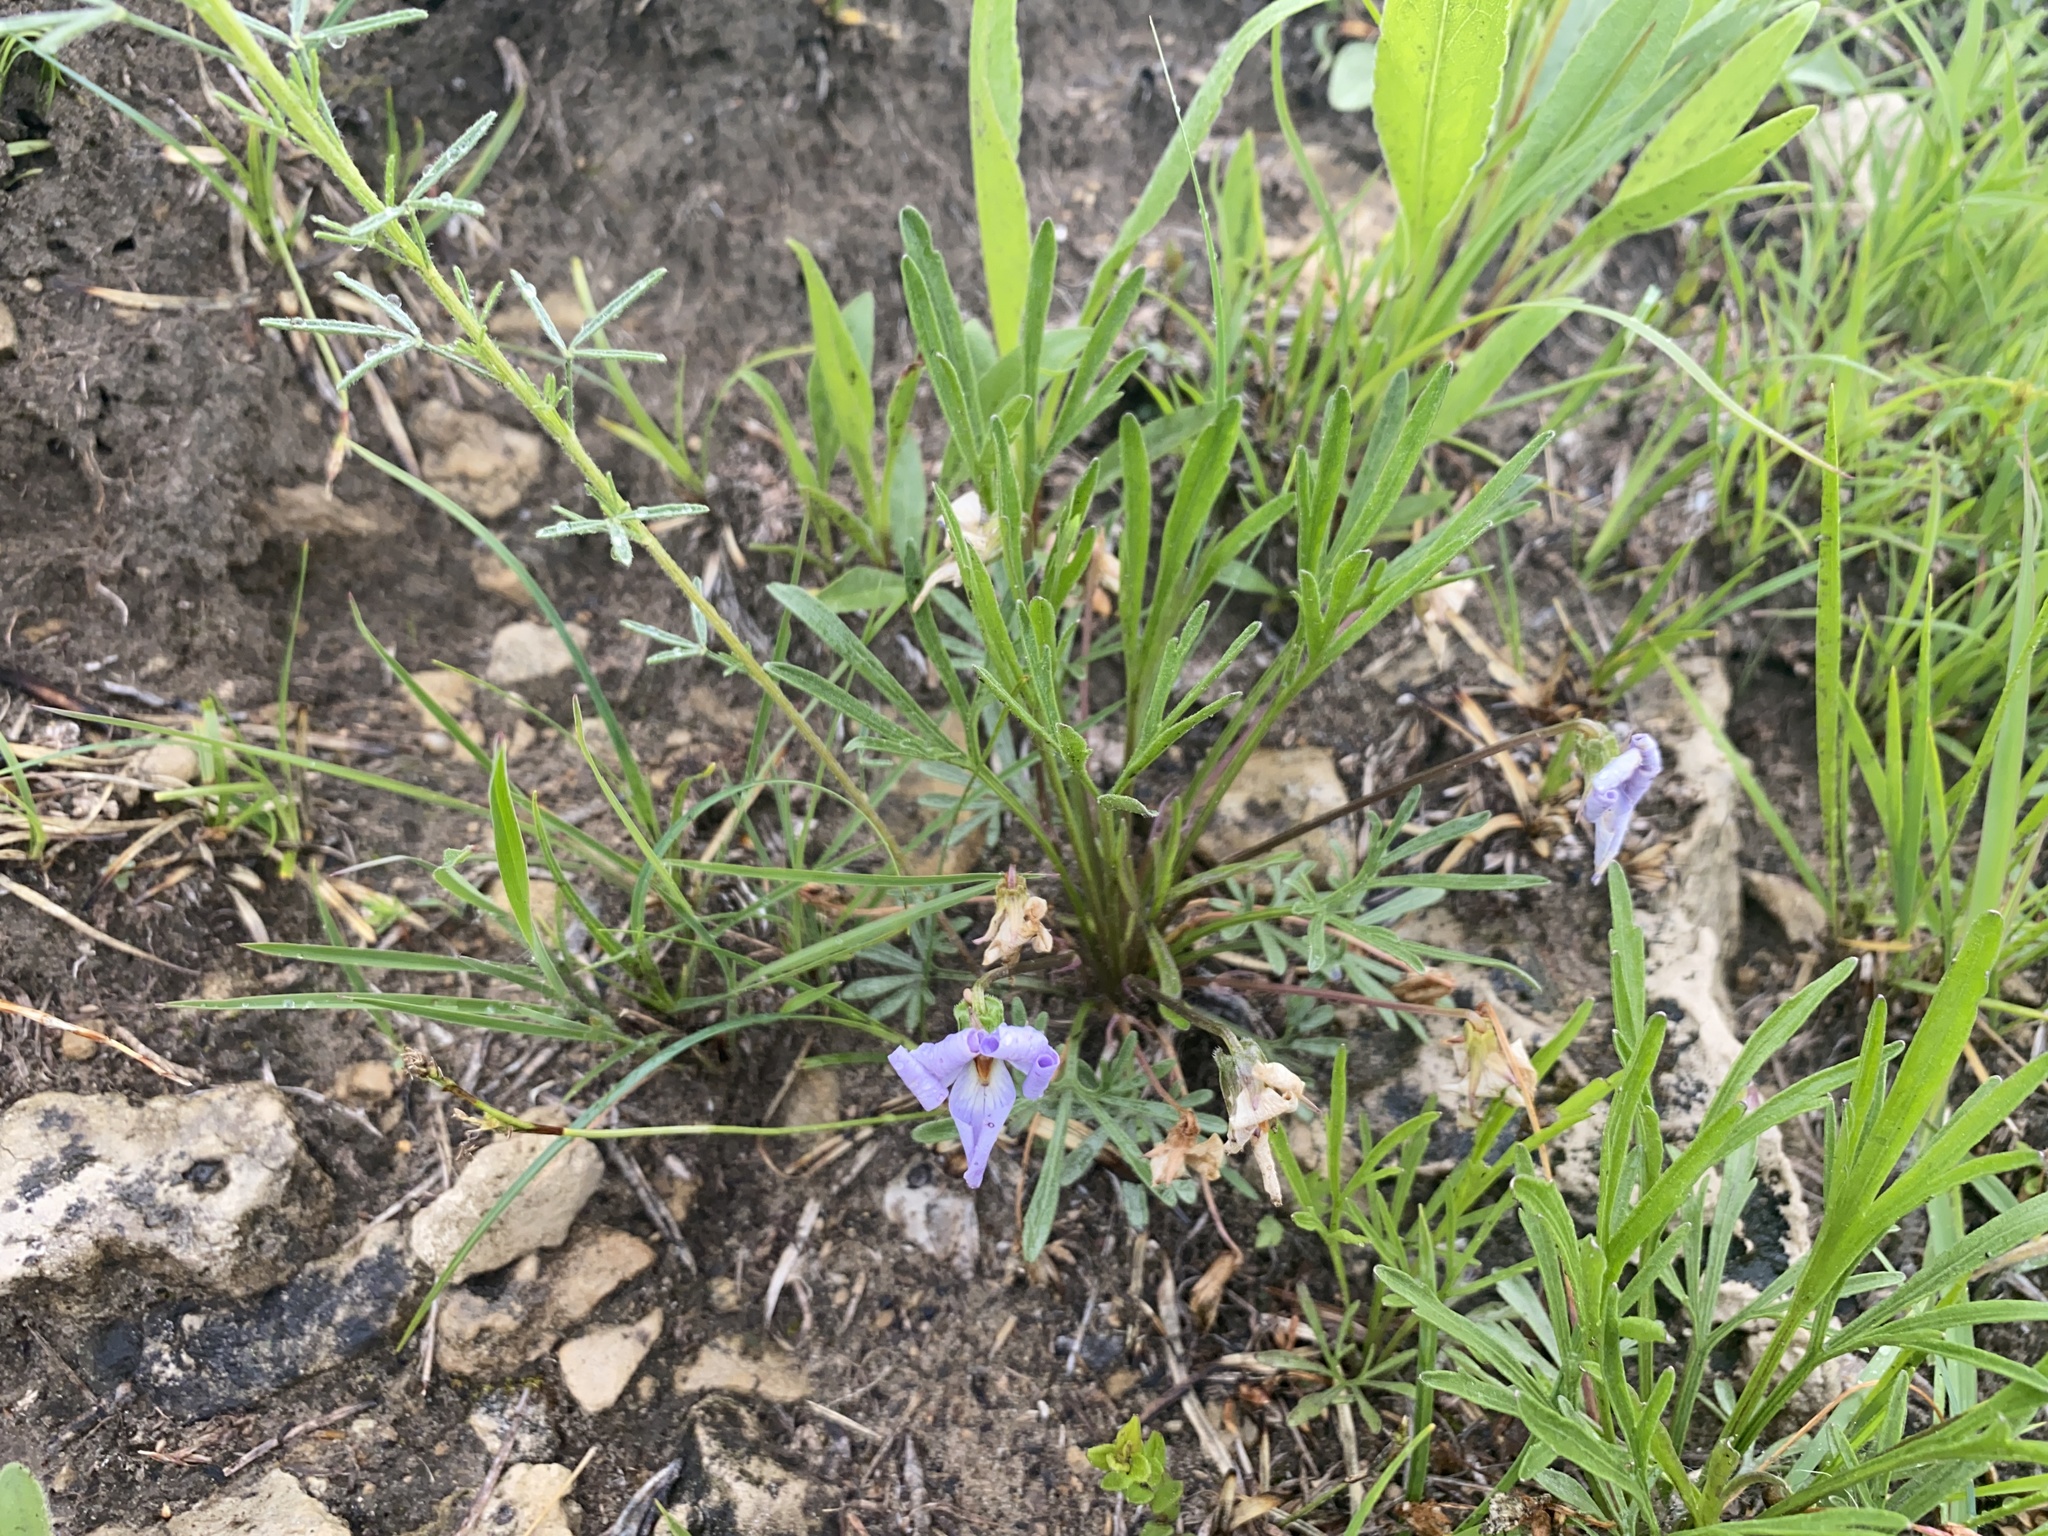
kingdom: Plantae
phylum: Tracheophyta
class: Magnoliopsida
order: Malpighiales
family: Violaceae
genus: Viola
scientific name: Viola pedata
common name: Pansy violet
